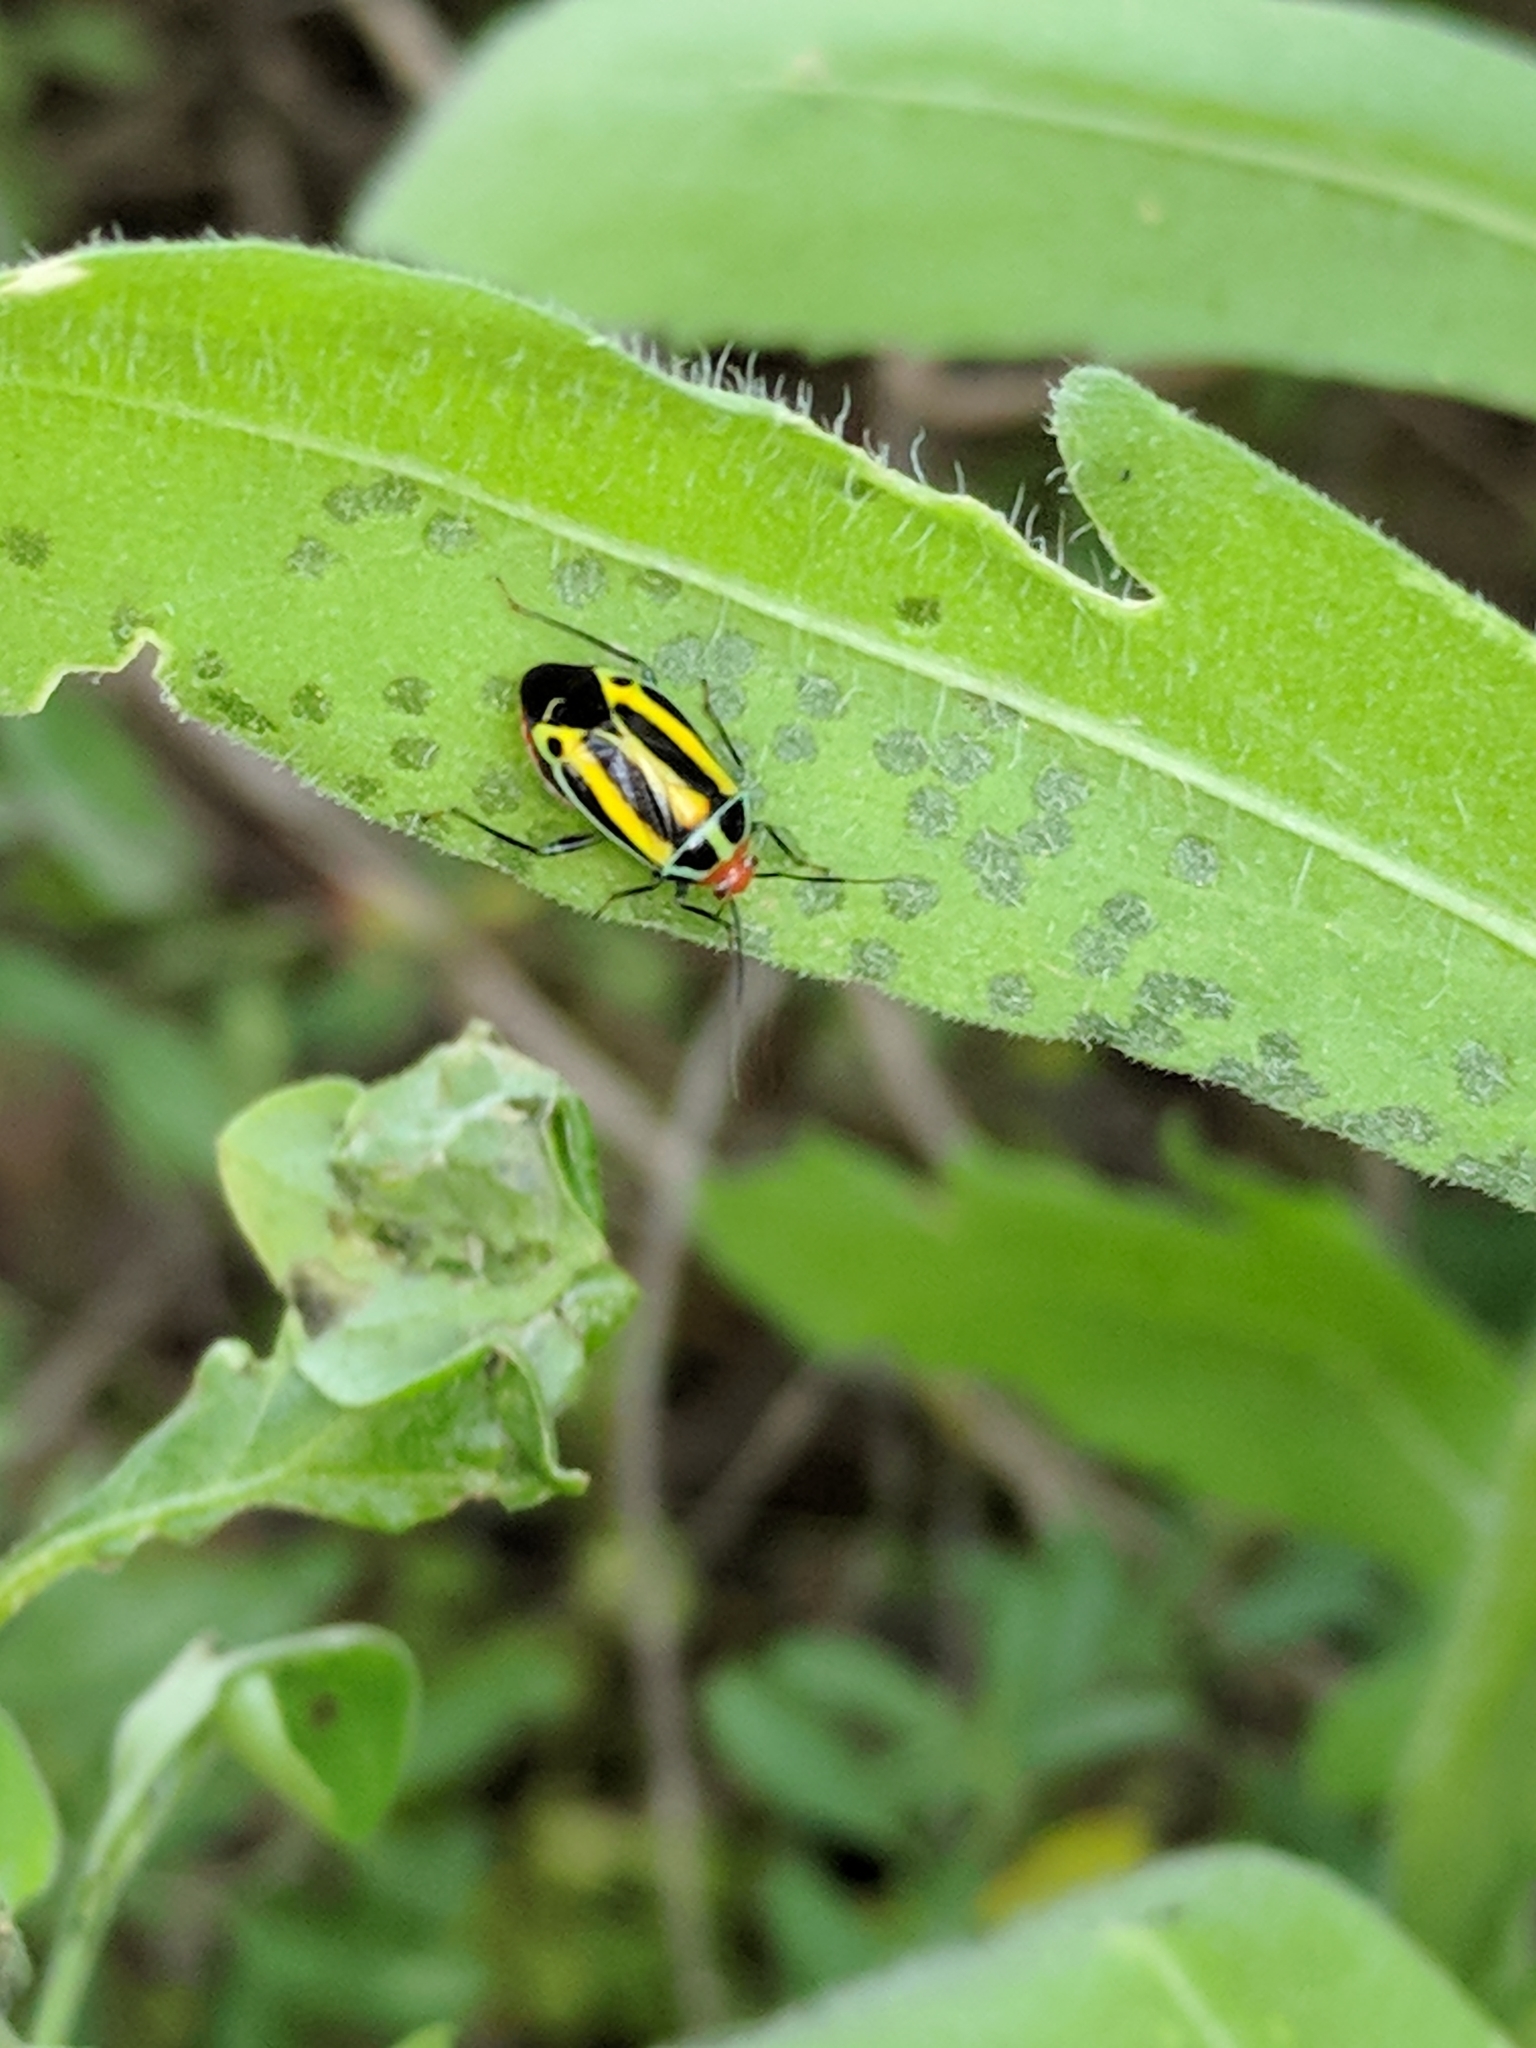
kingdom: Animalia
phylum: Arthropoda
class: Insecta
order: Hemiptera
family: Miridae
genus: Poecilocapsus
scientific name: Poecilocapsus lineatus
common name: Four-lined plant bug
